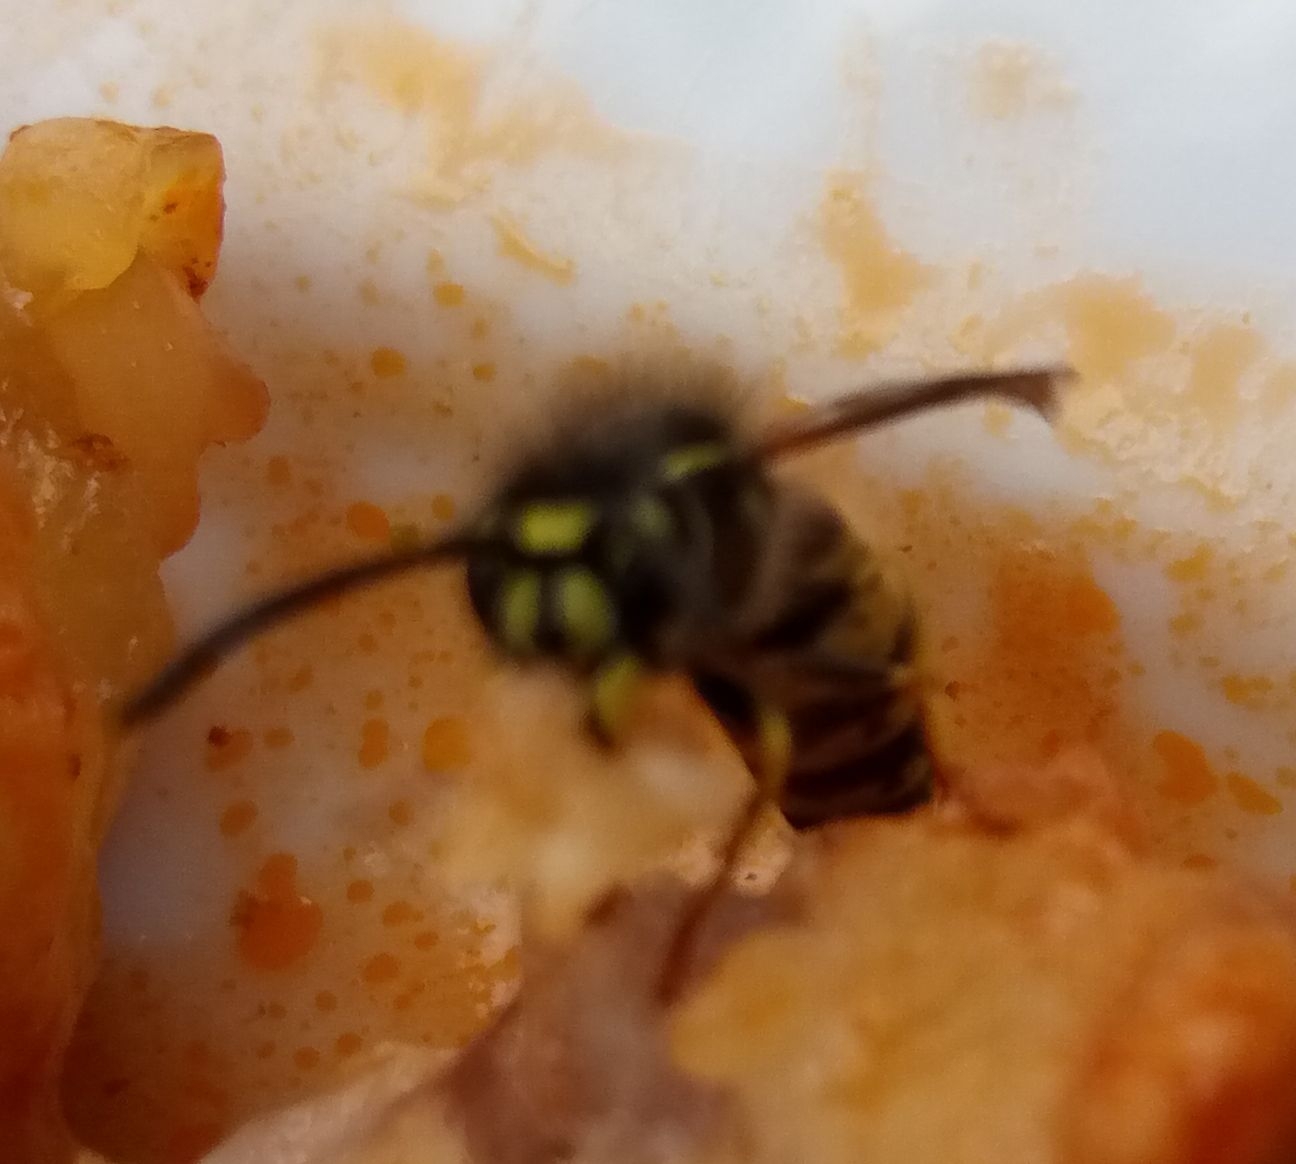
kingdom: Animalia
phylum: Arthropoda
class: Insecta
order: Hymenoptera
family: Vespidae
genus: Vespula
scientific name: Vespula vulgaris
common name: Common wasp
